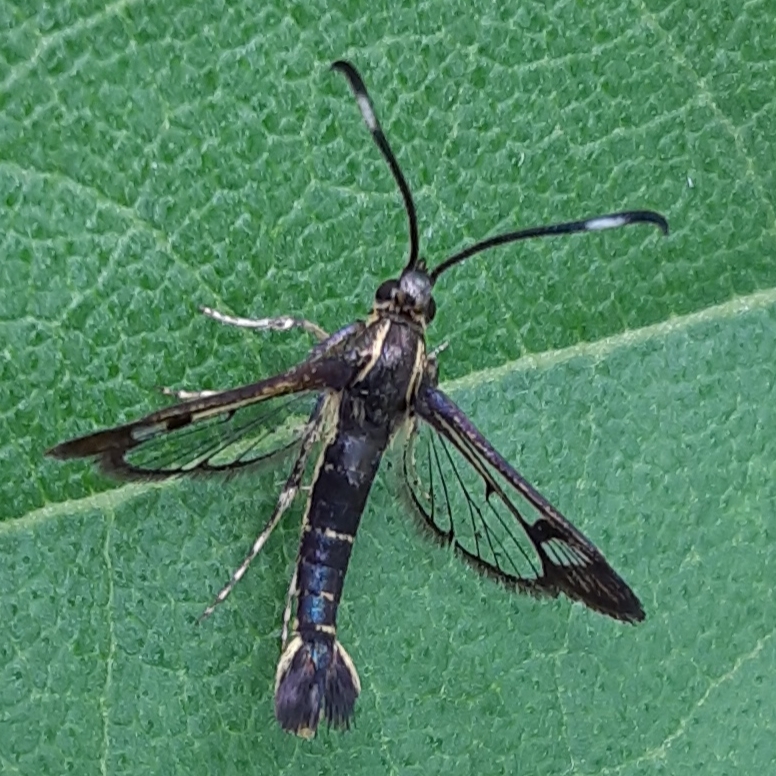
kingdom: Animalia
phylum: Arthropoda
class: Insecta
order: Lepidoptera
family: Sesiidae
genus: Carmenta
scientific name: Carmenta ithacae
